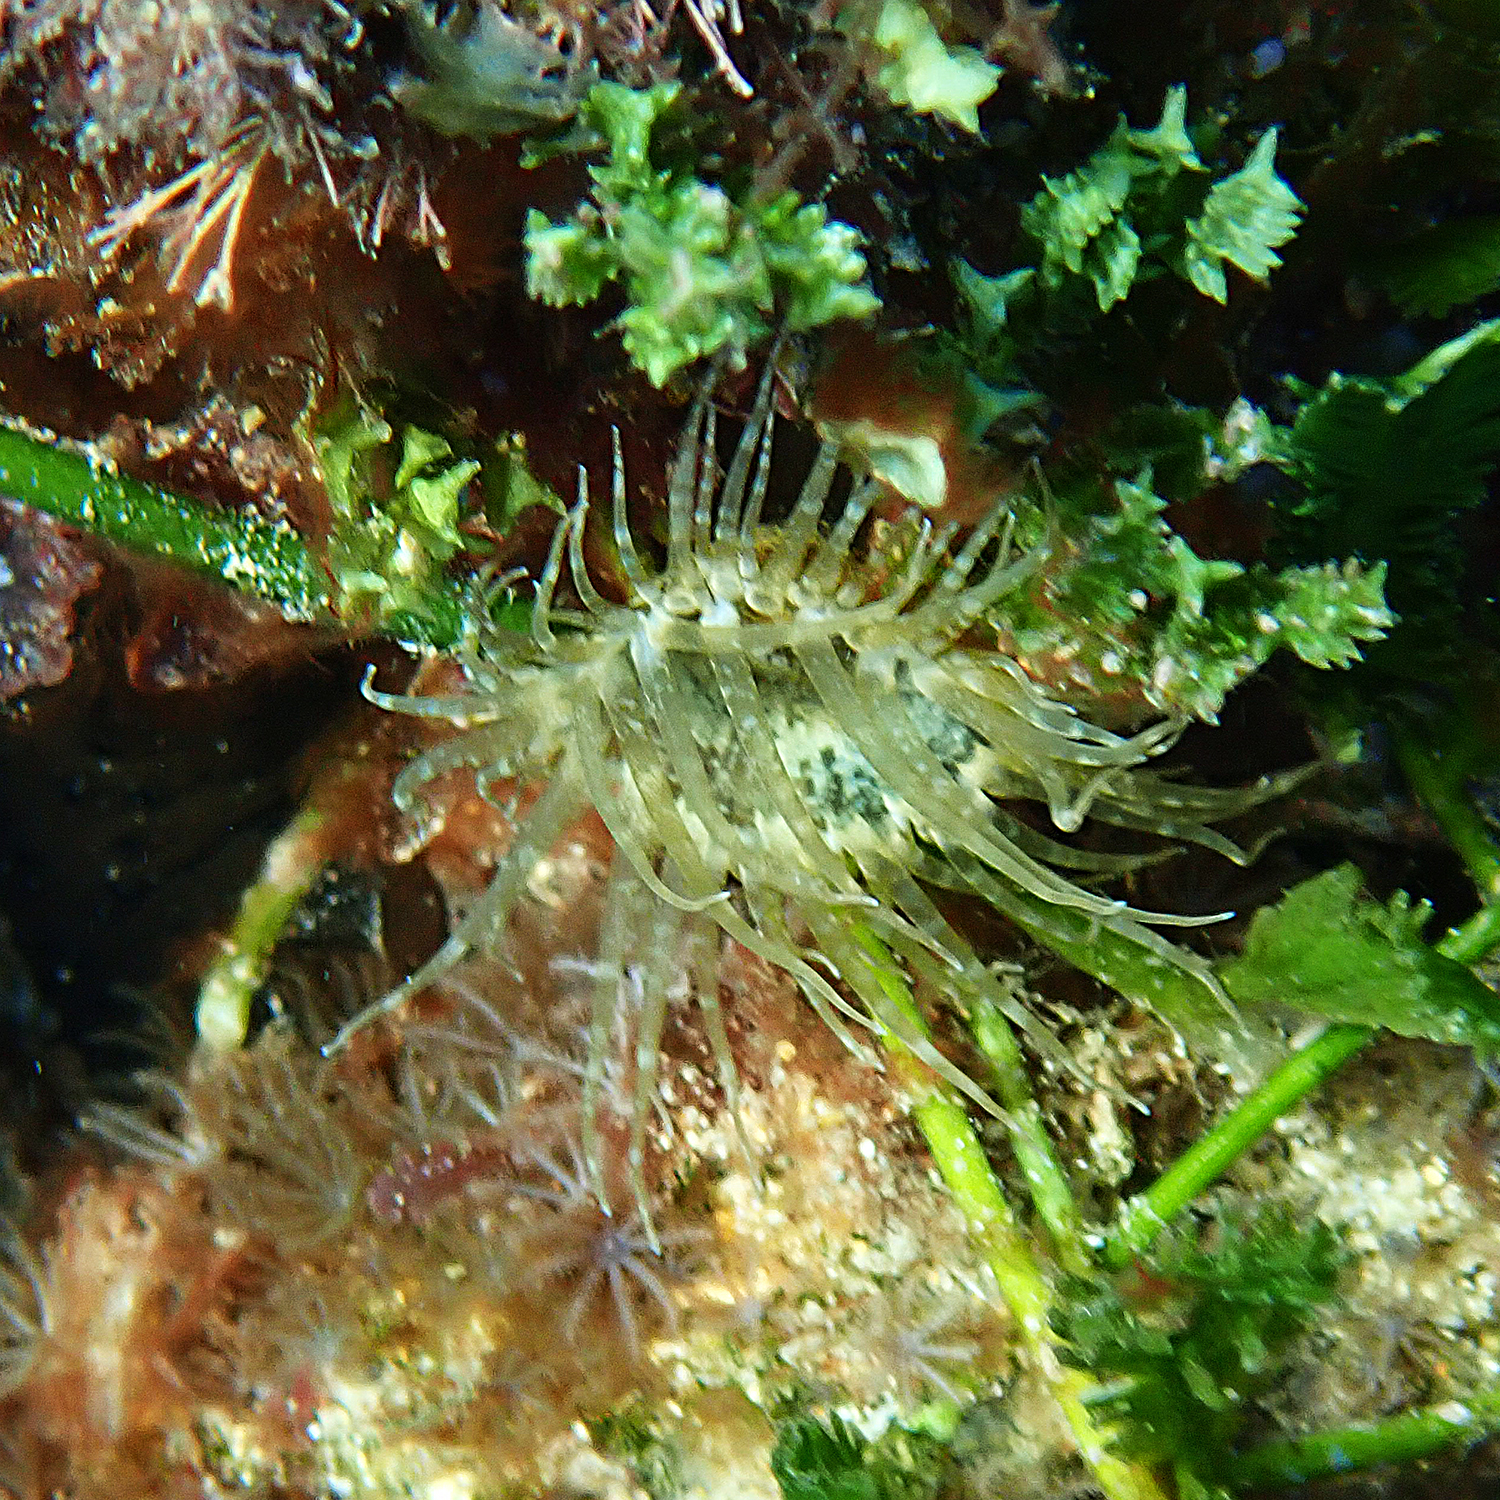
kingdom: Animalia
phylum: Cnidaria
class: Anthozoa
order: Actiniaria
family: Aiptasiidae
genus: Exaiptasia
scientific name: Exaiptasia diaphana
